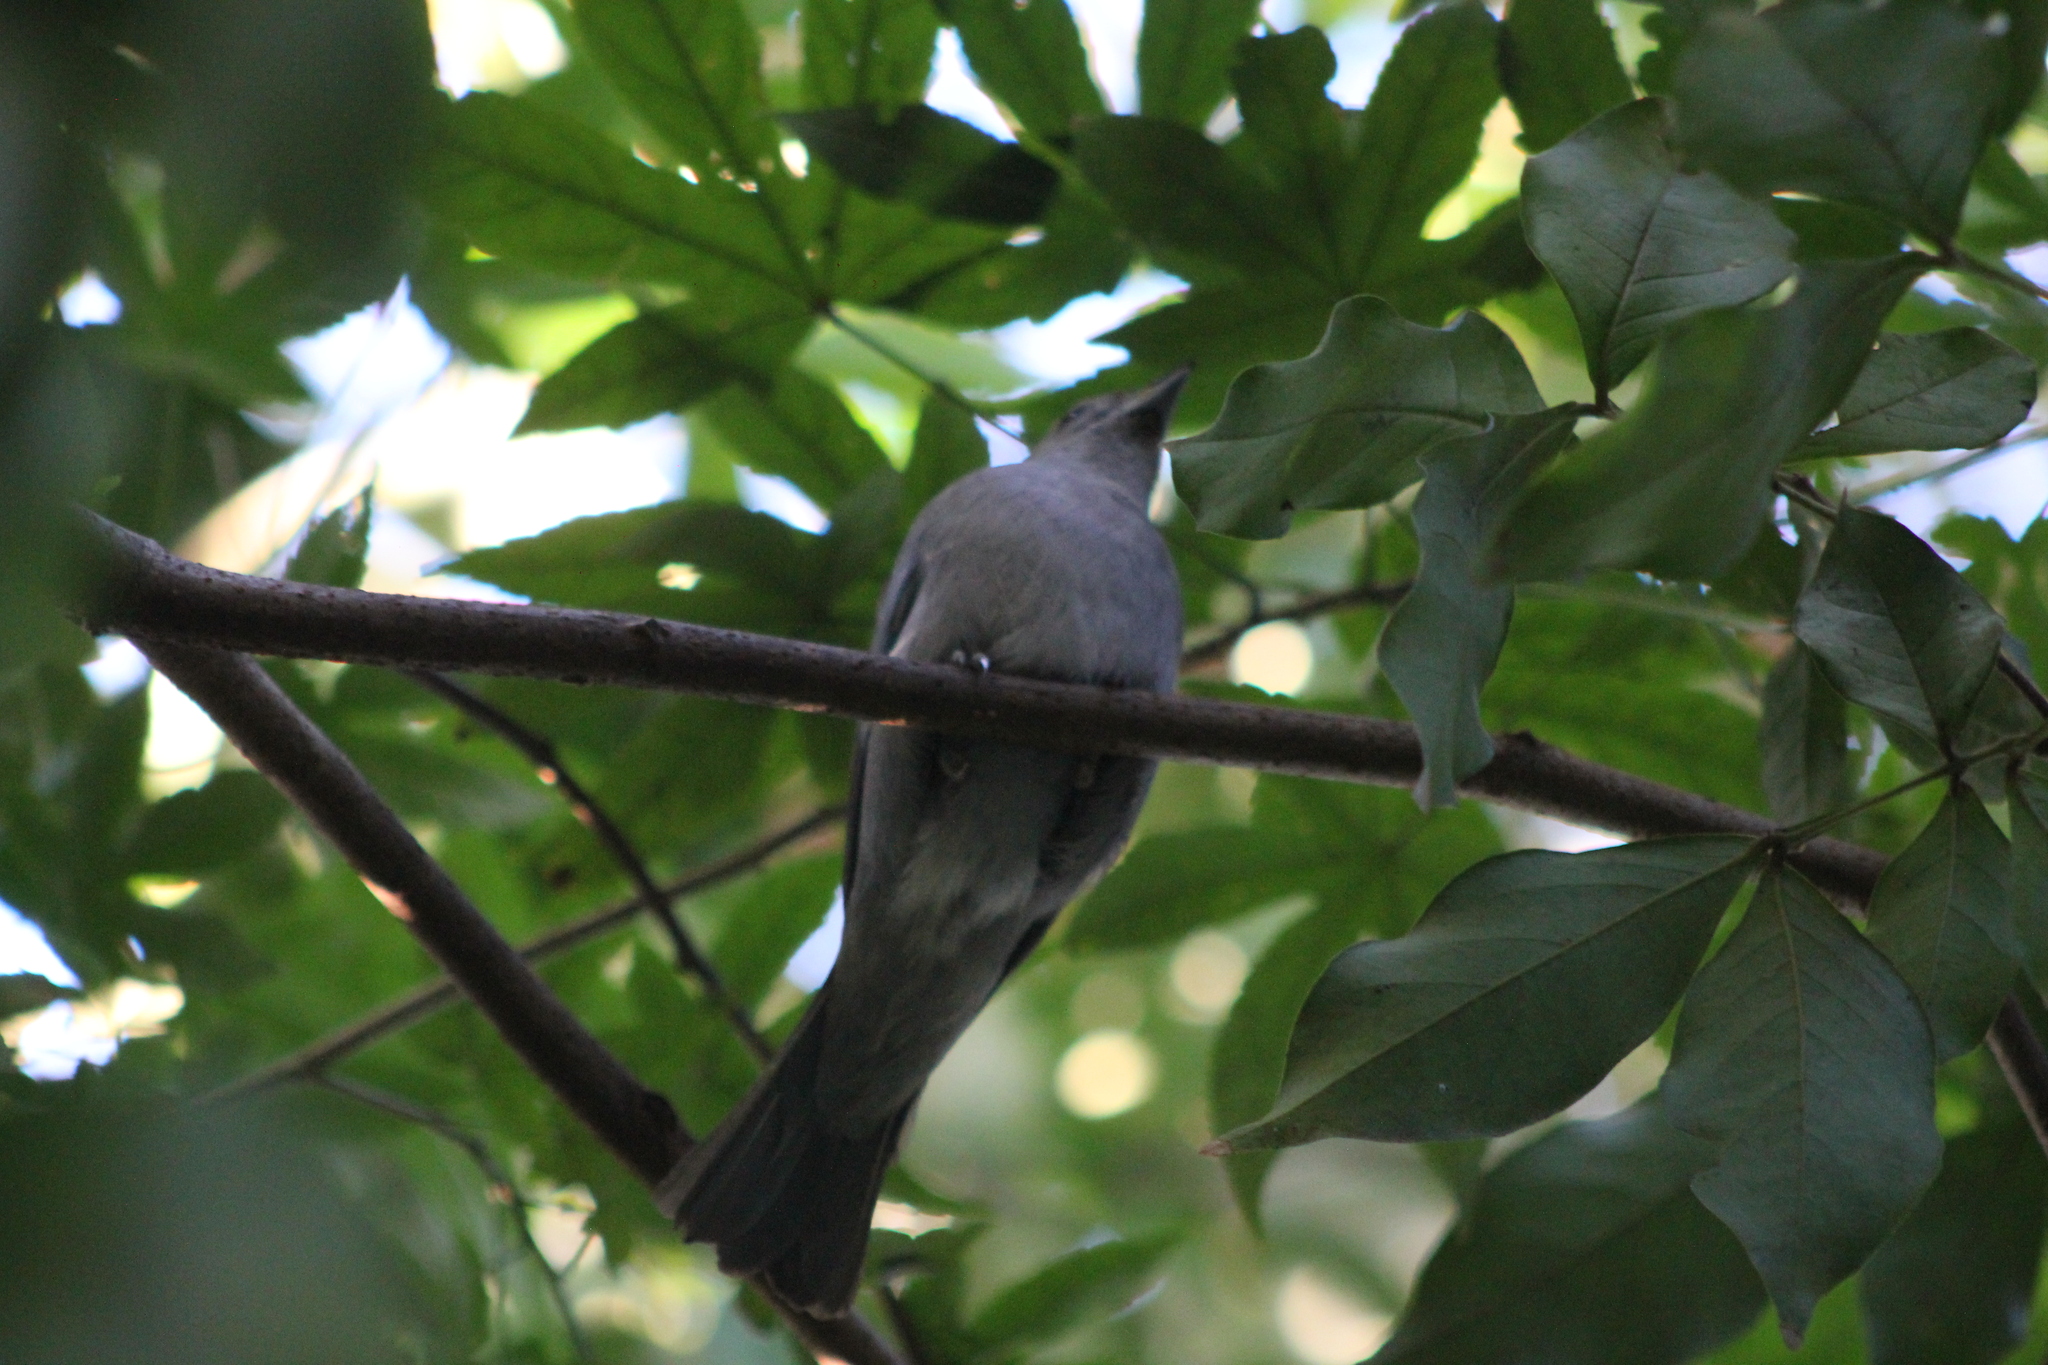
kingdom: Animalia
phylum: Chordata
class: Aves
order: Passeriformes
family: Thraupidae
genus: Thraupis
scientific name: Thraupis sayaca
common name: Sayaca tanager
